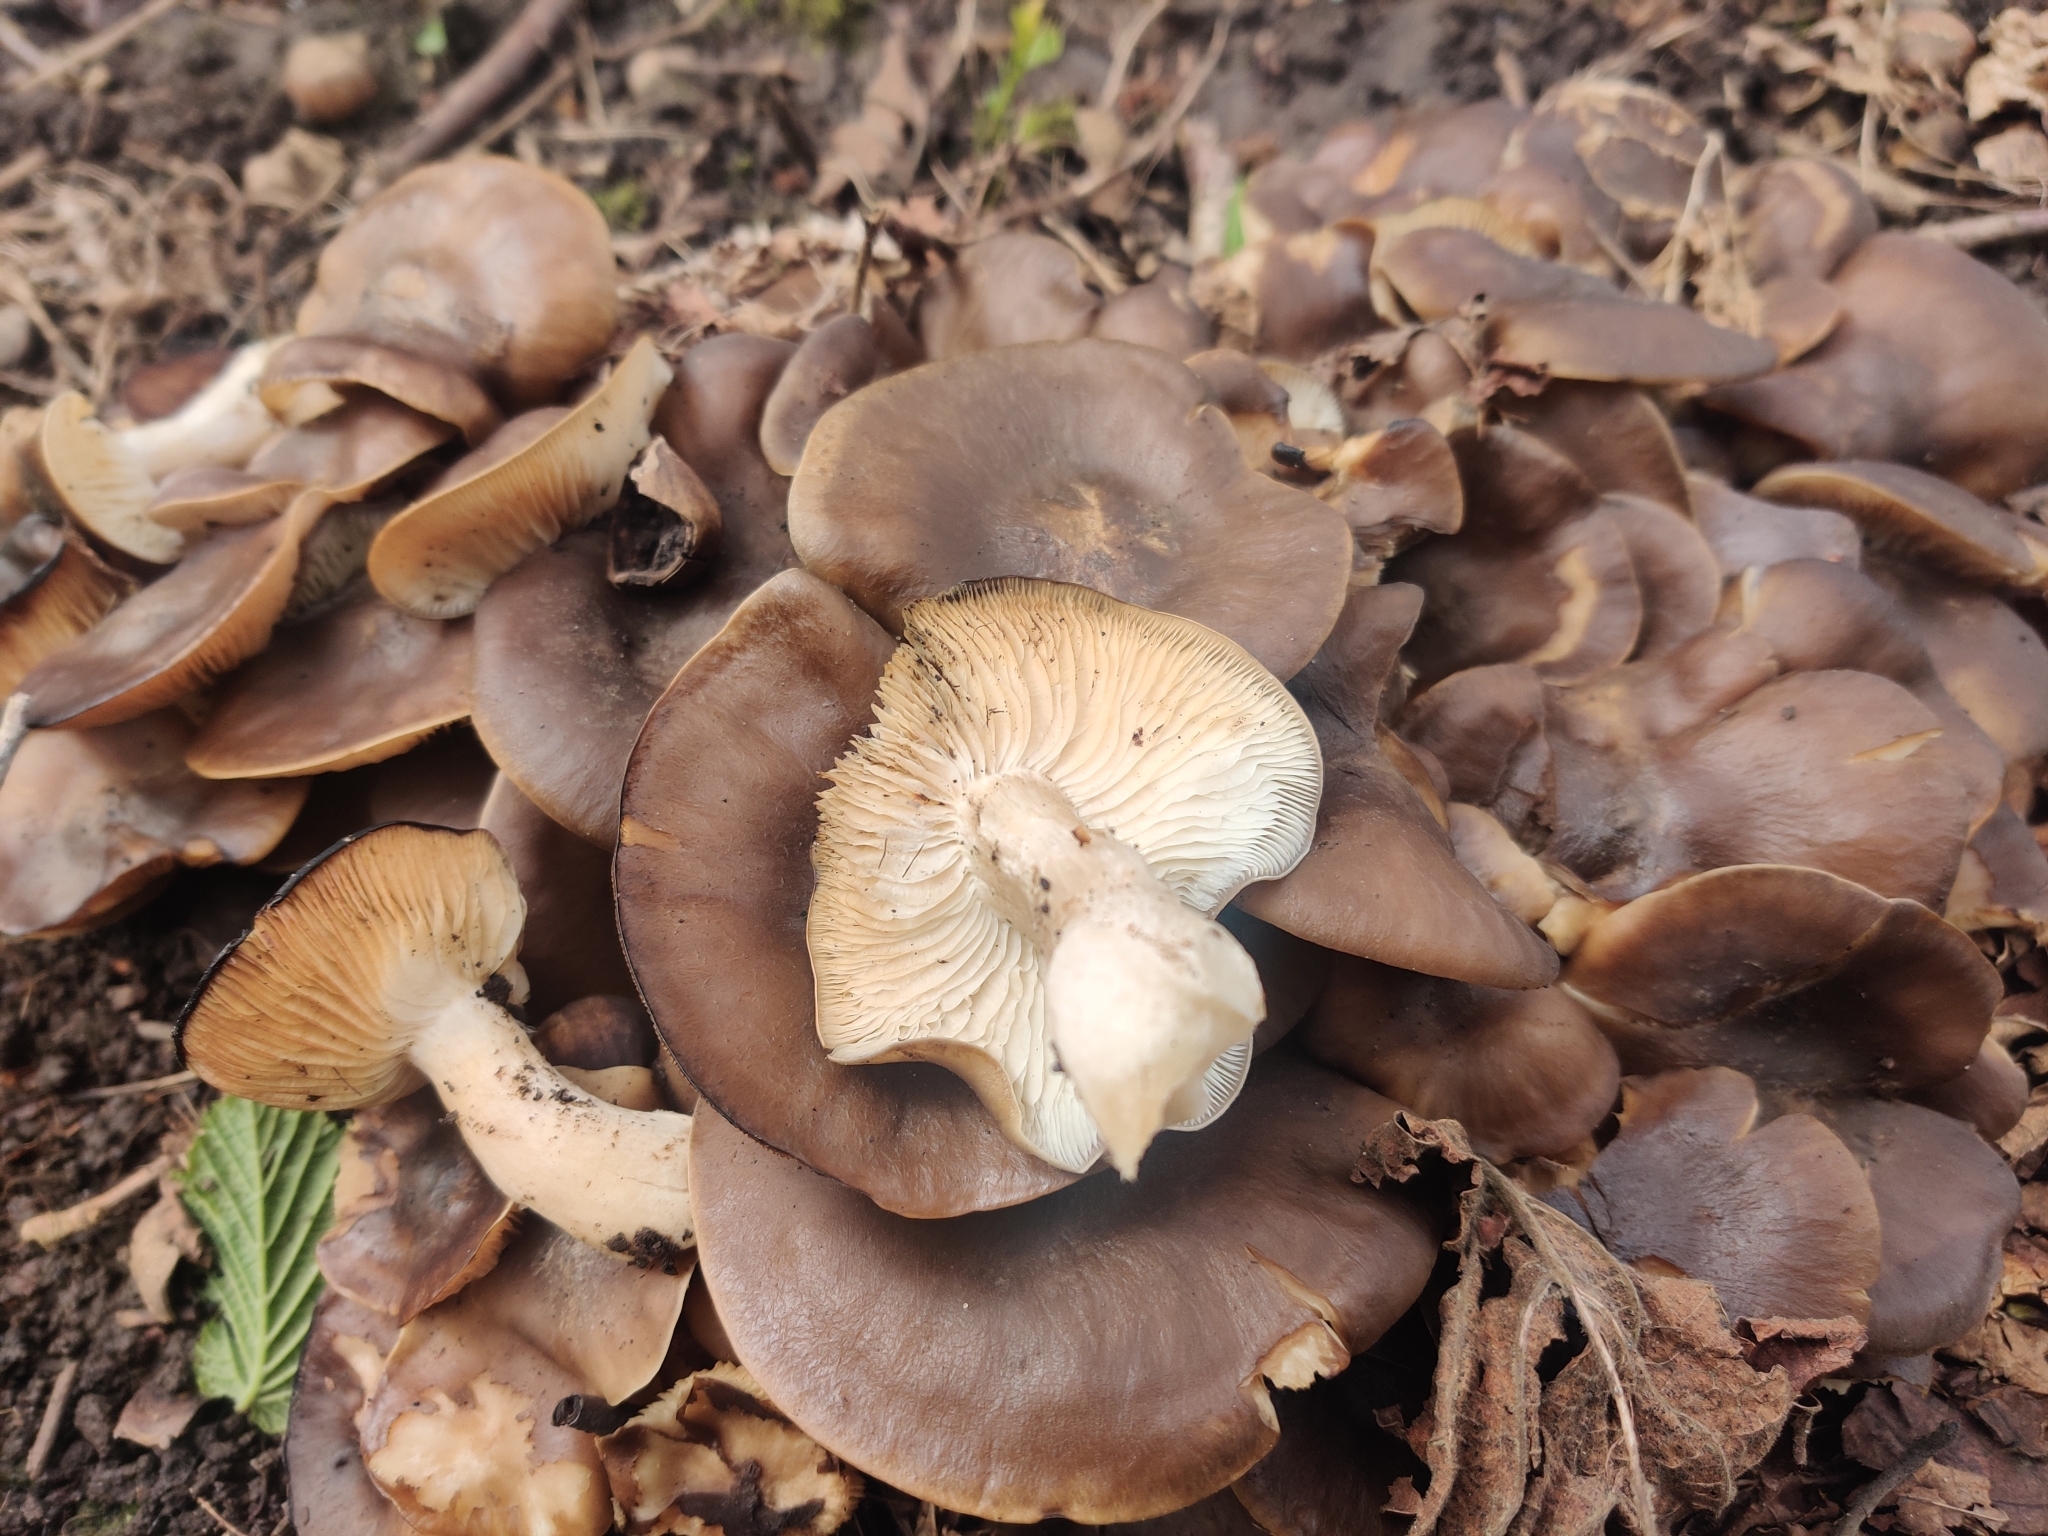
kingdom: Fungi
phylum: Basidiomycota
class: Agaricomycetes
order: Agaricales
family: Lyophyllaceae
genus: Lyophyllum
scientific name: Lyophyllum decastes
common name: Clustered domecap
